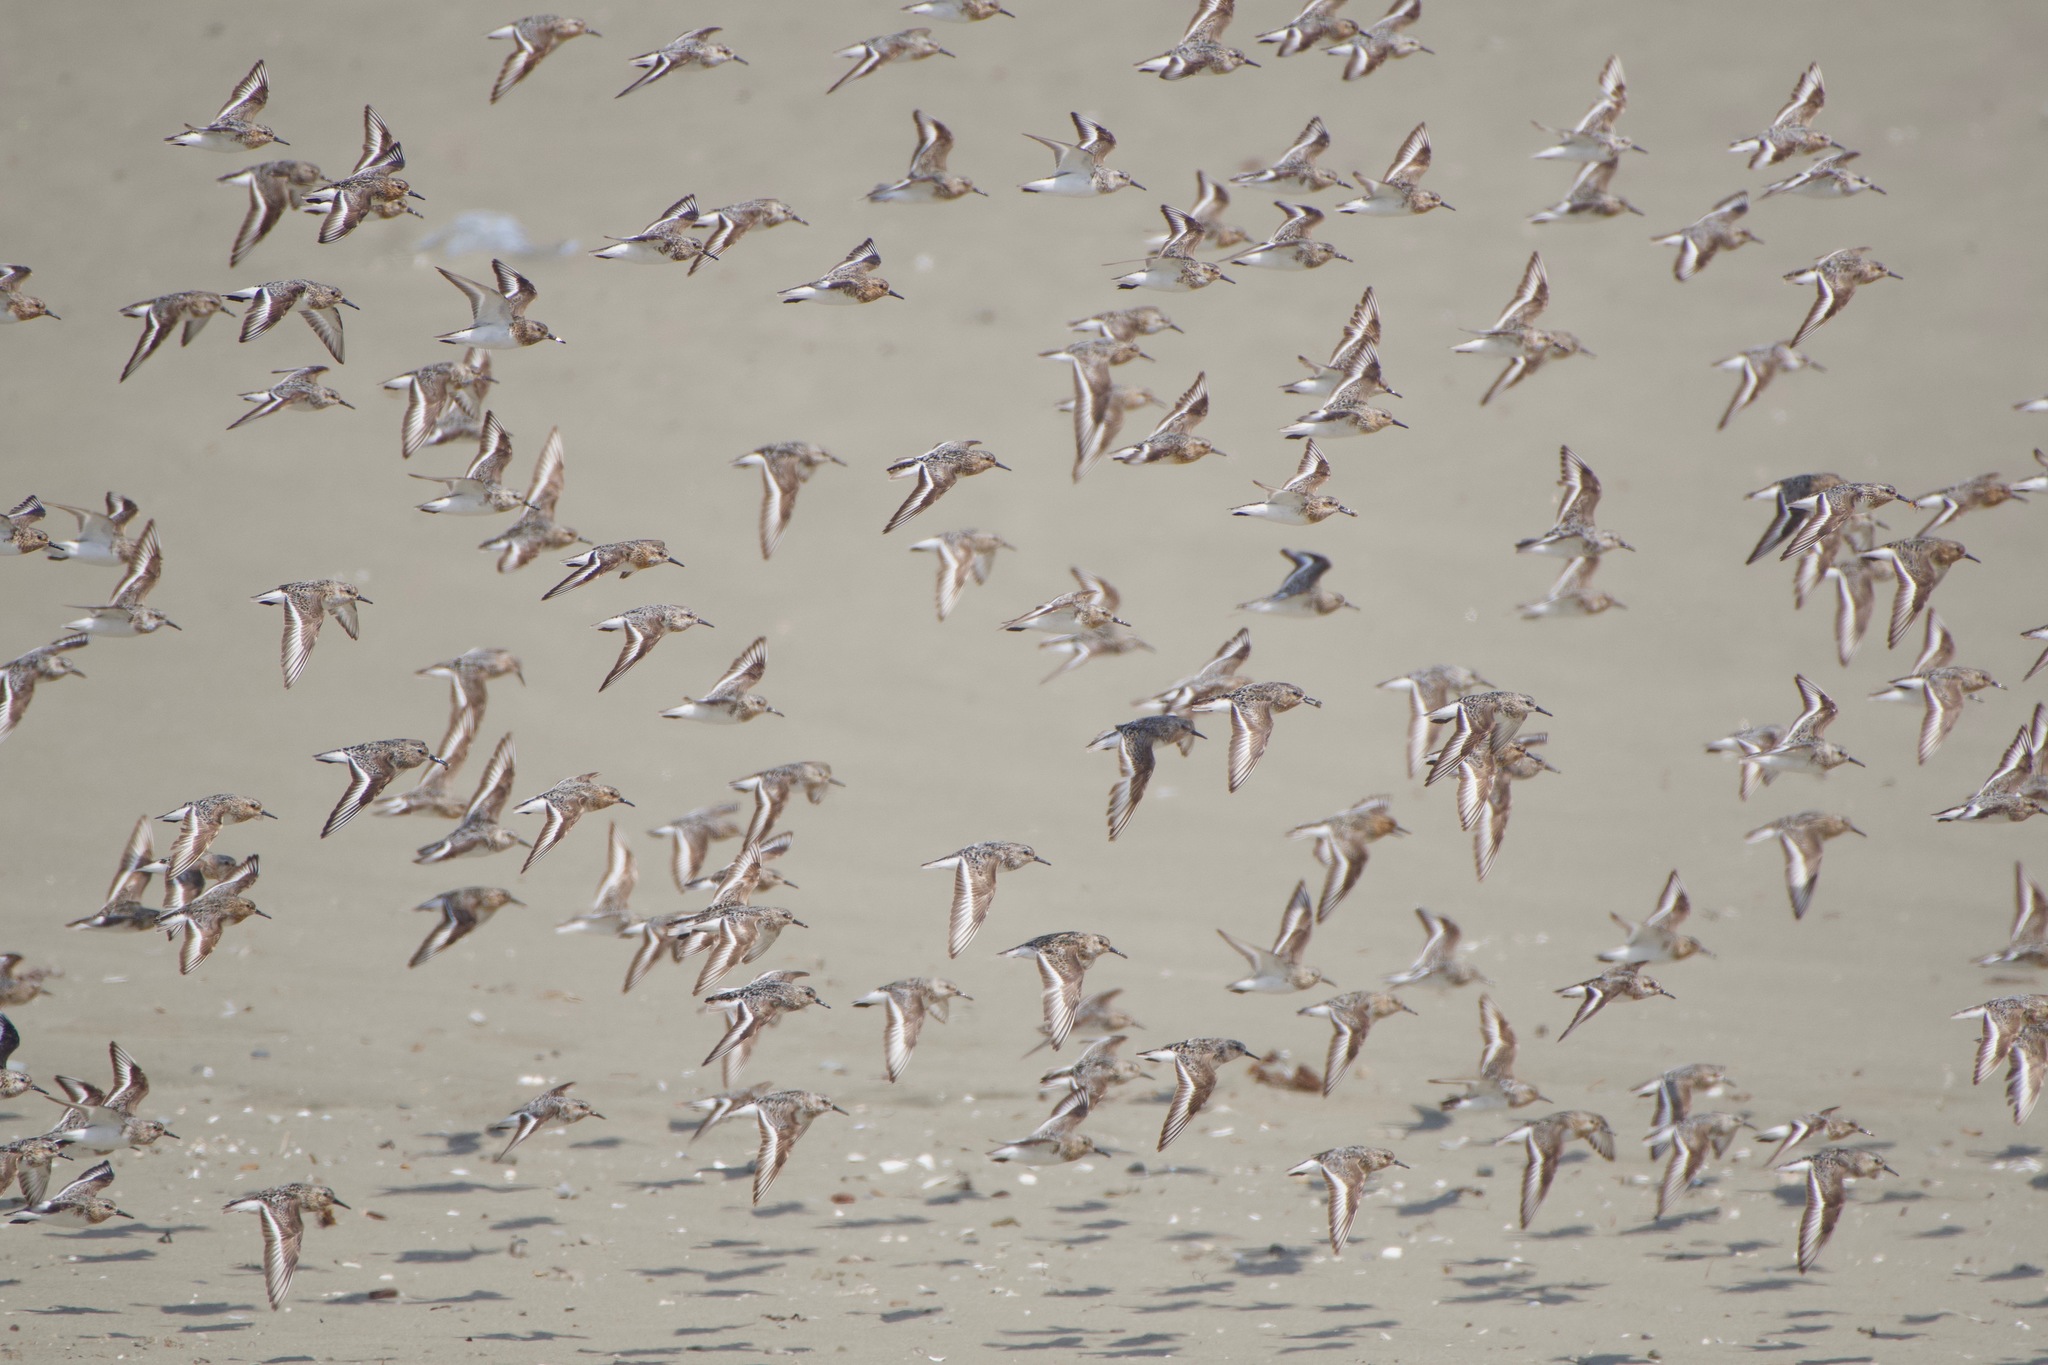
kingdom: Animalia
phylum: Chordata
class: Aves
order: Charadriiformes
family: Scolopacidae
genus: Calidris
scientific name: Calidris alba
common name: Sanderling
